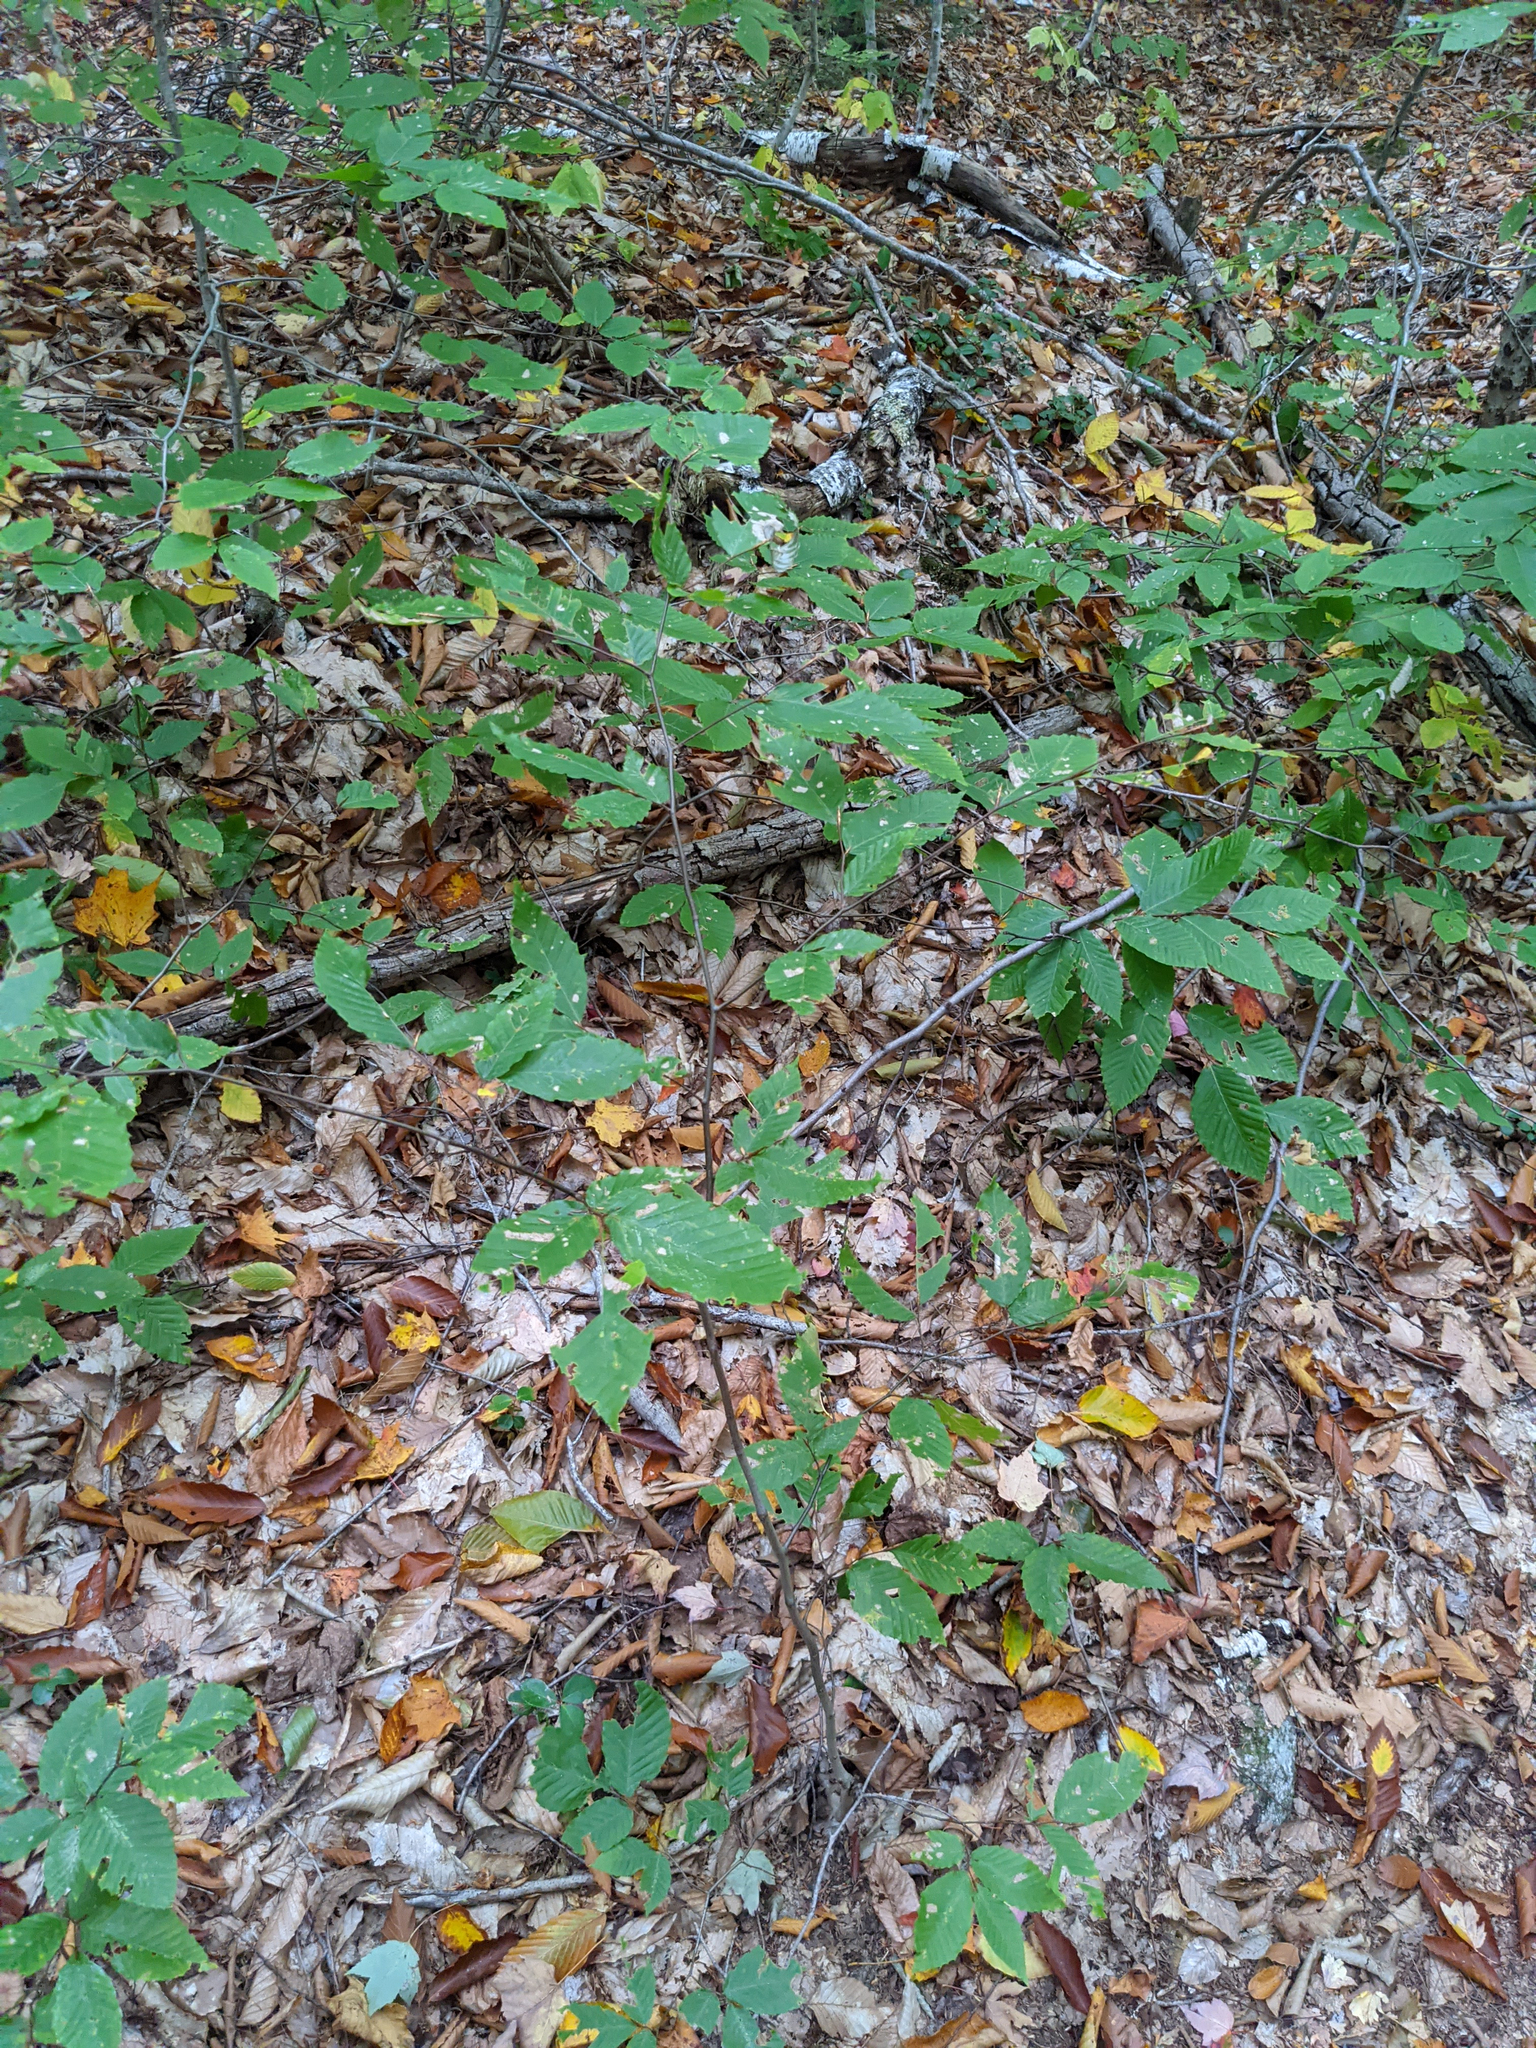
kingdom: Plantae
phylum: Tracheophyta
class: Magnoliopsida
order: Fagales
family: Fagaceae
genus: Fagus
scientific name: Fagus grandifolia
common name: American beech
